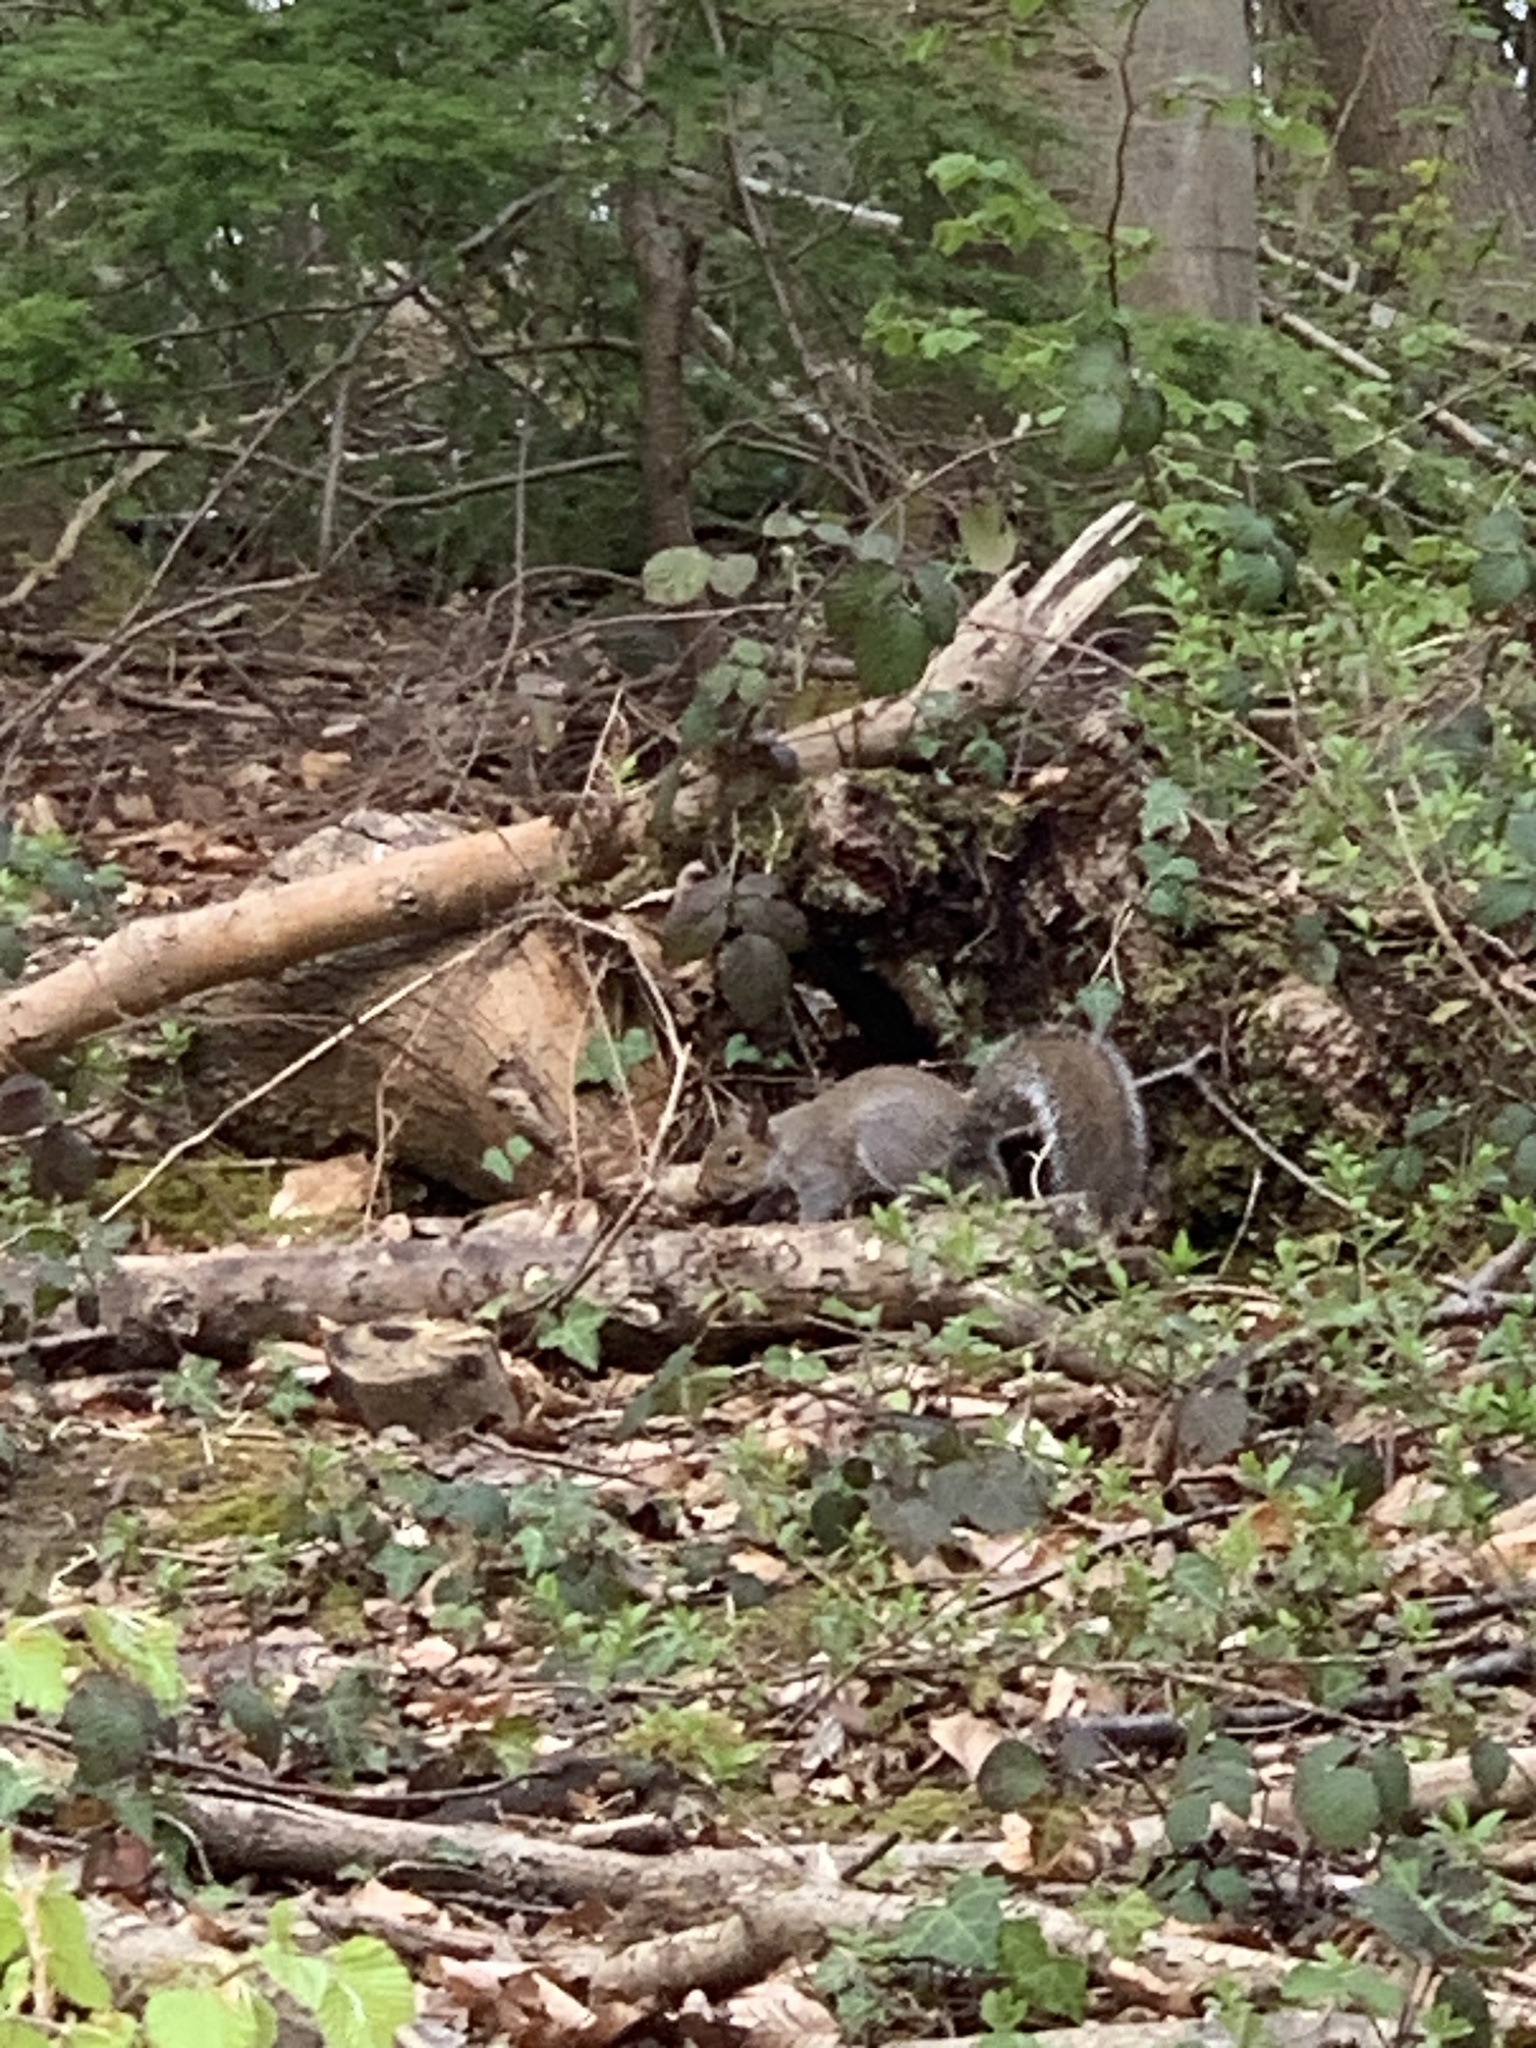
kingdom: Animalia
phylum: Chordata
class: Mammalia
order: Rodentia
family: Sciuridae
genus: Sciurus
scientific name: Sciurus carolinensis
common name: Eastern gray squirrel
